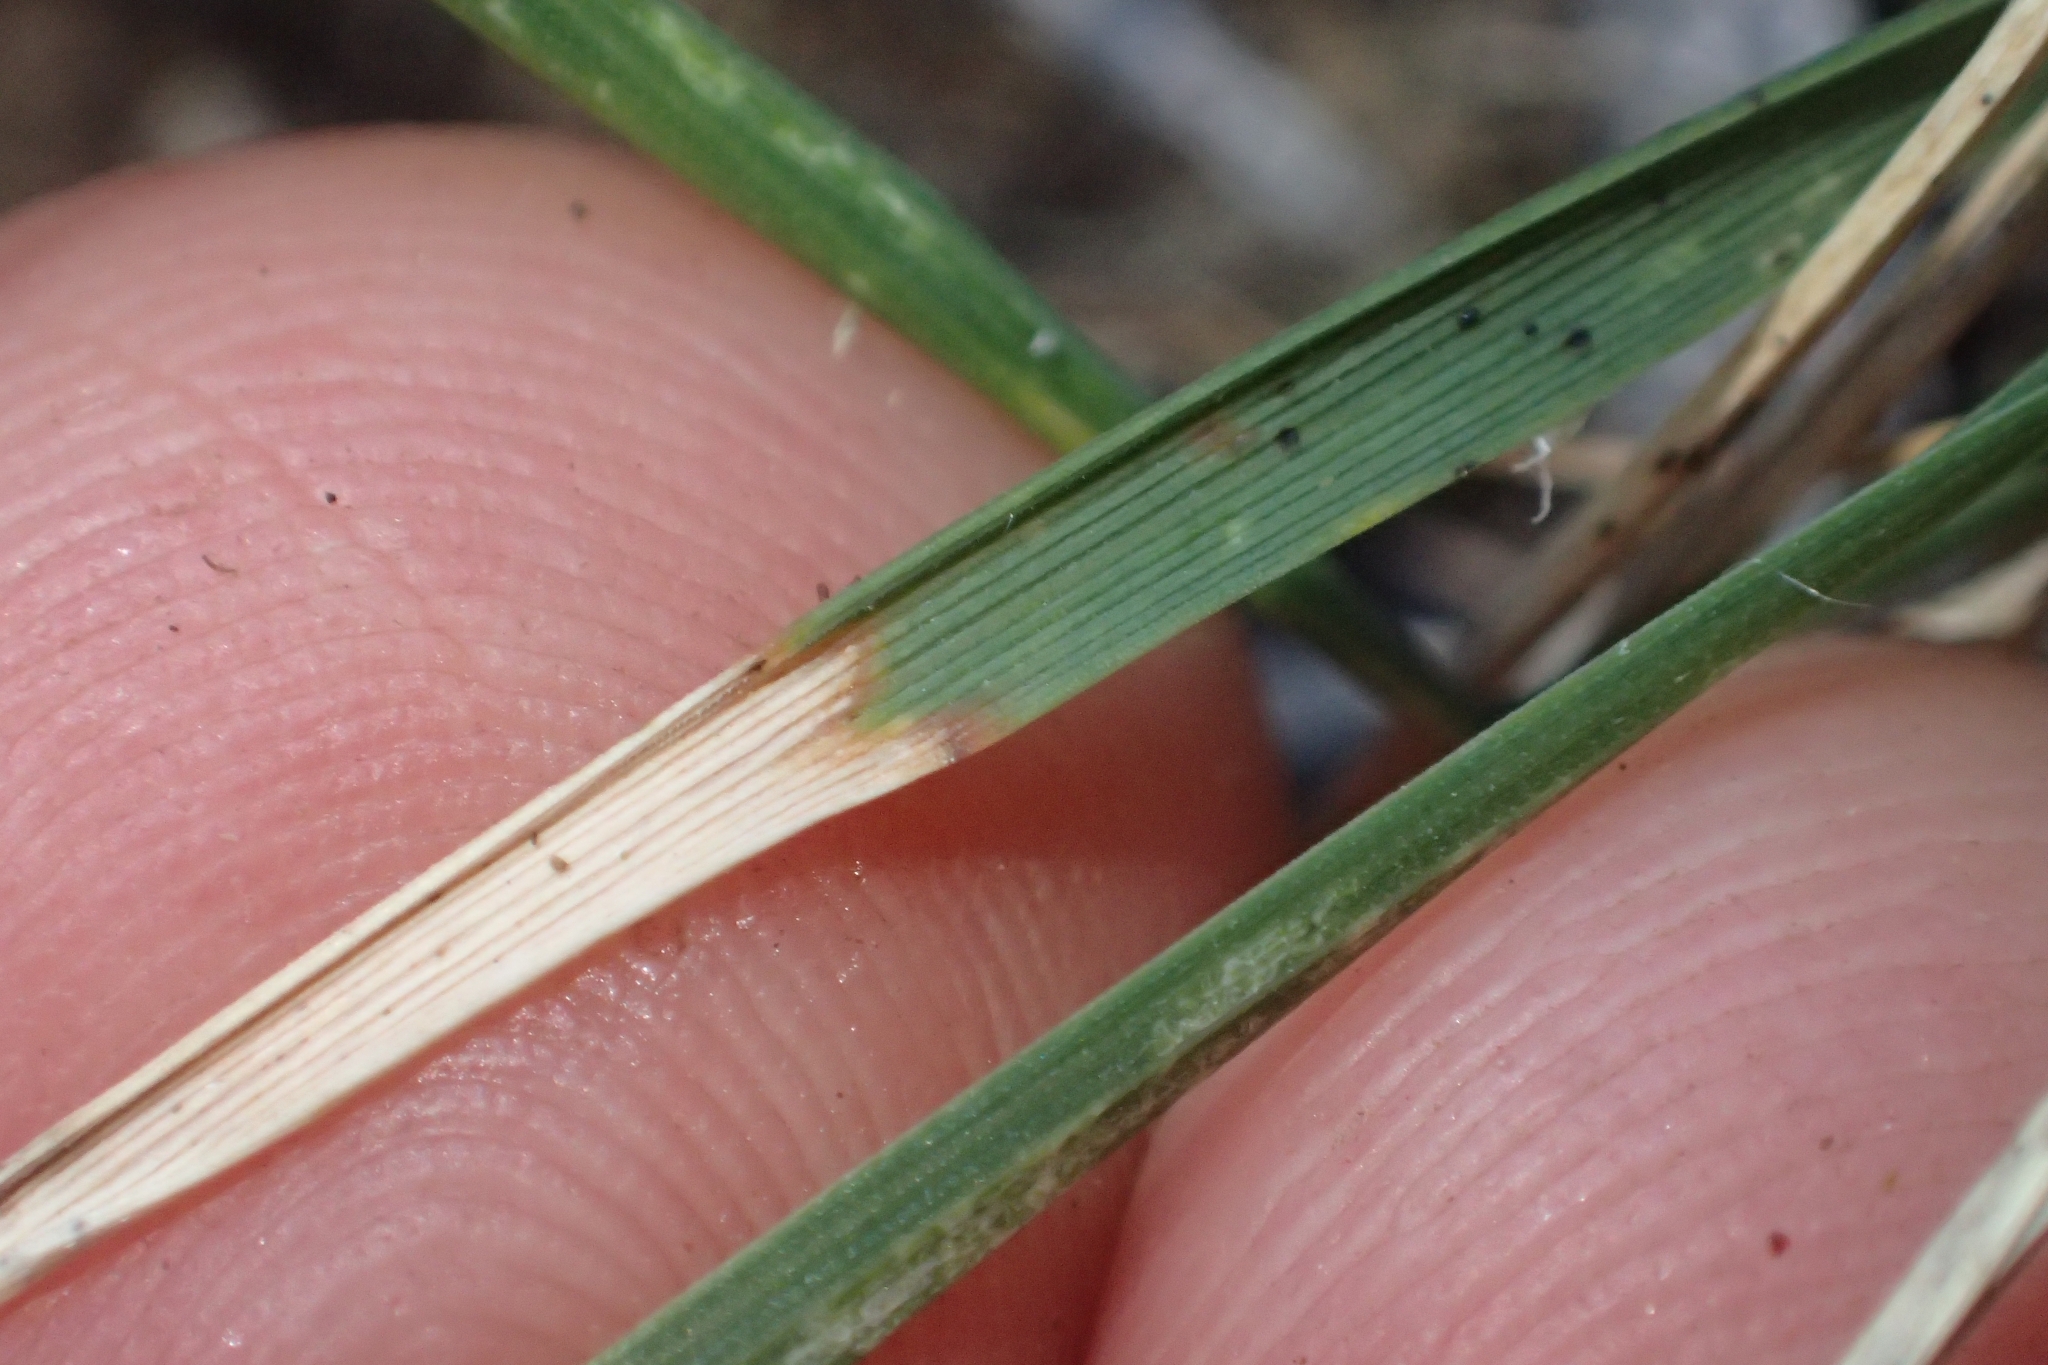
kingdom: Plantae
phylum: Tracheophyta
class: Liliopsida
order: Poales
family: Poaceae
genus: Dichelachne
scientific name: Dichelachne crinita
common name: Clovenfoot plumegrass
